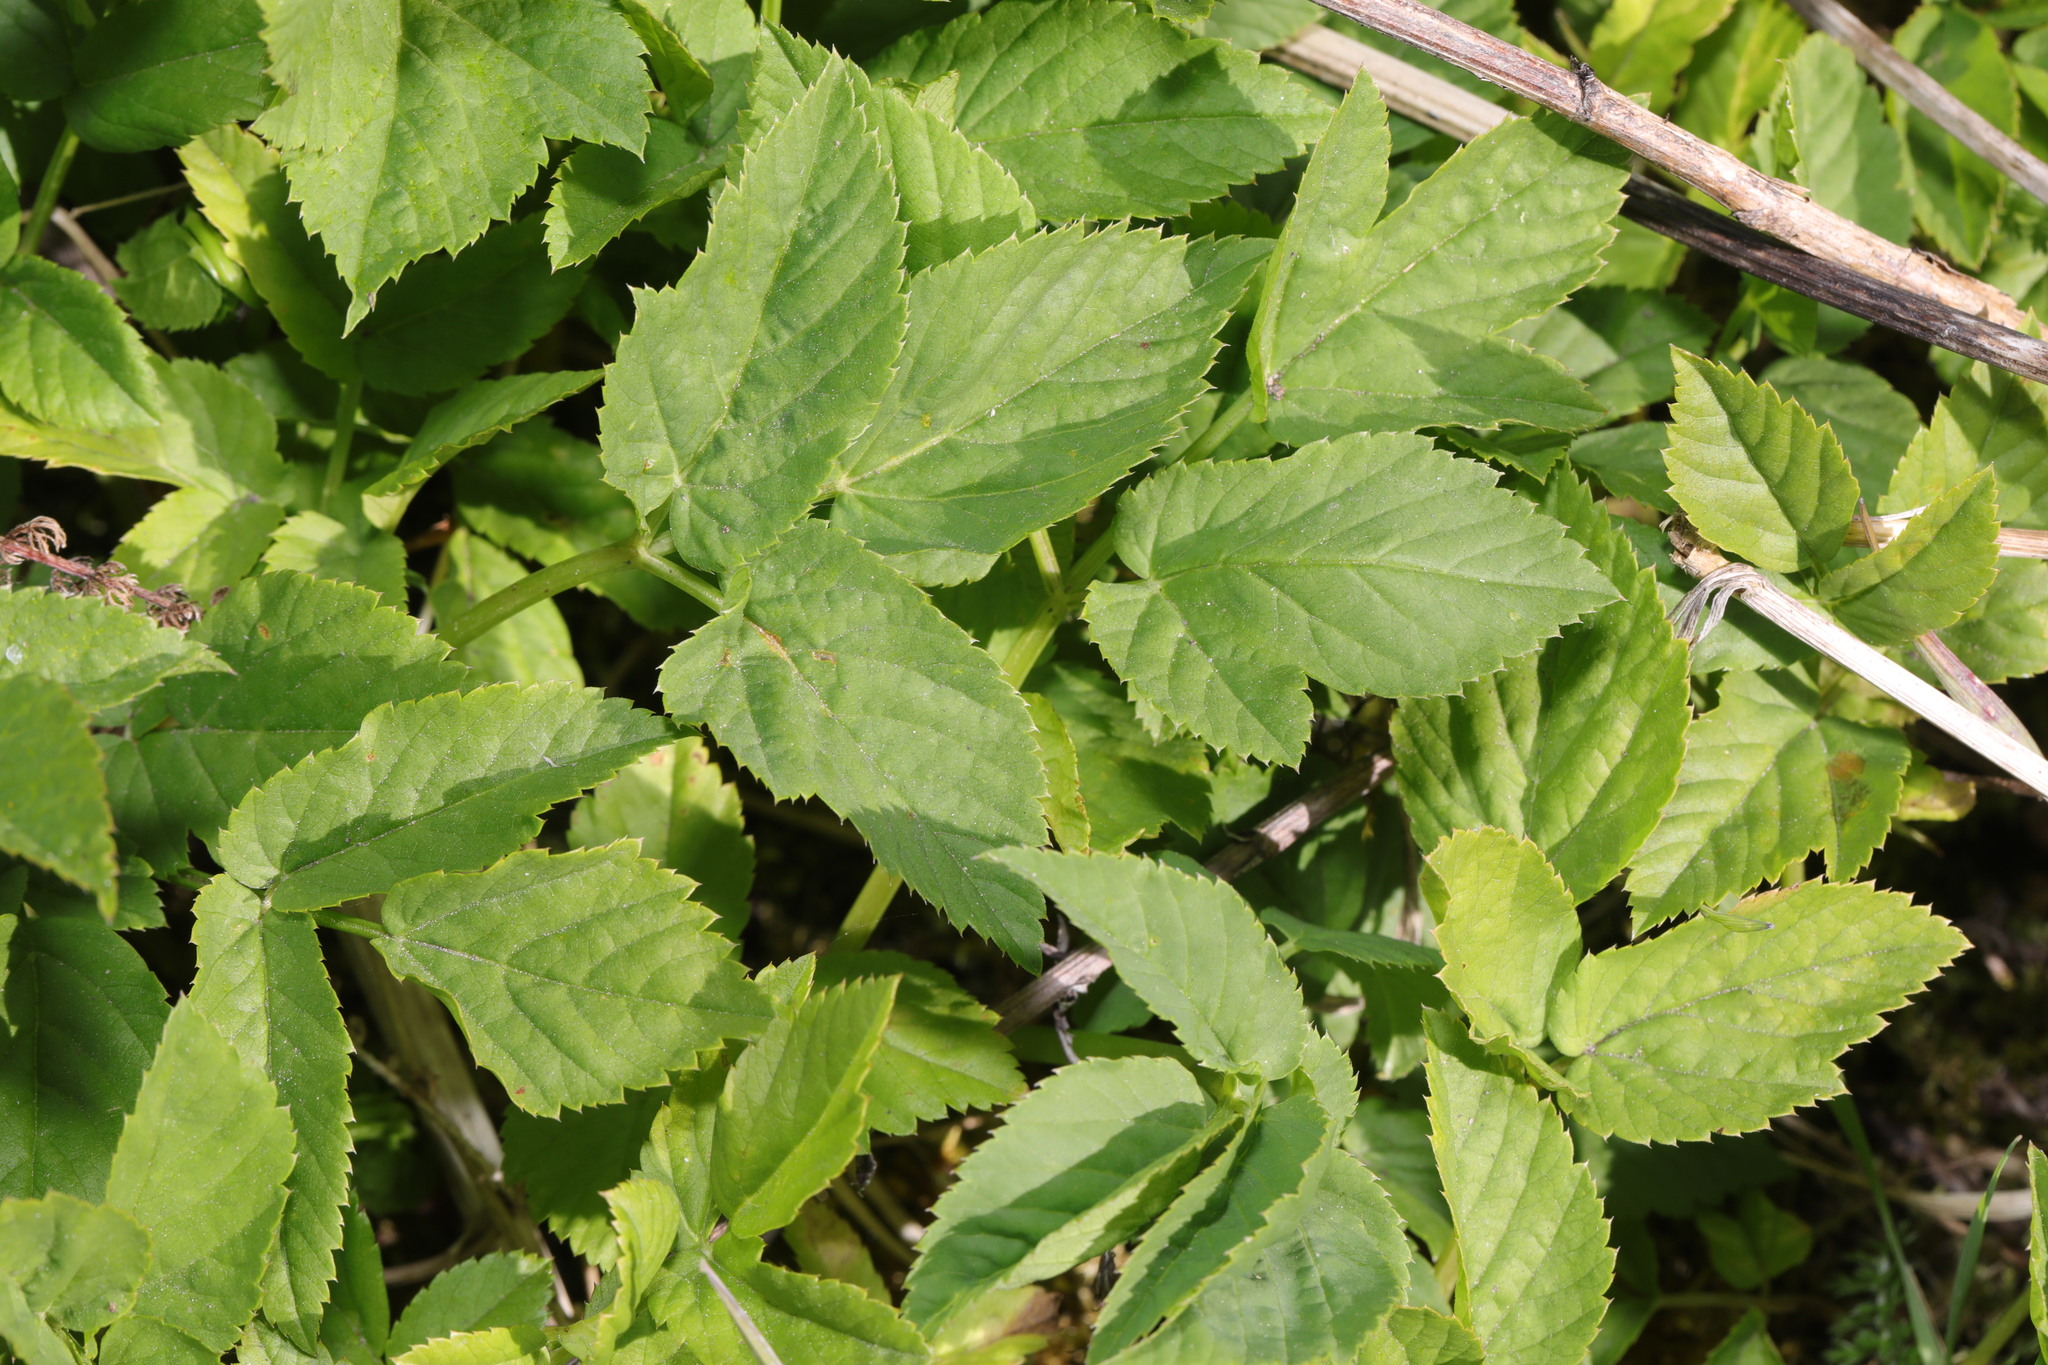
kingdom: Plantae
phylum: Tracheophyta
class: Magnoliopsida
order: Apiales
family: Apiaceae
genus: Aegopodium
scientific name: Aegopodium podagraria
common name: Ground-elder
